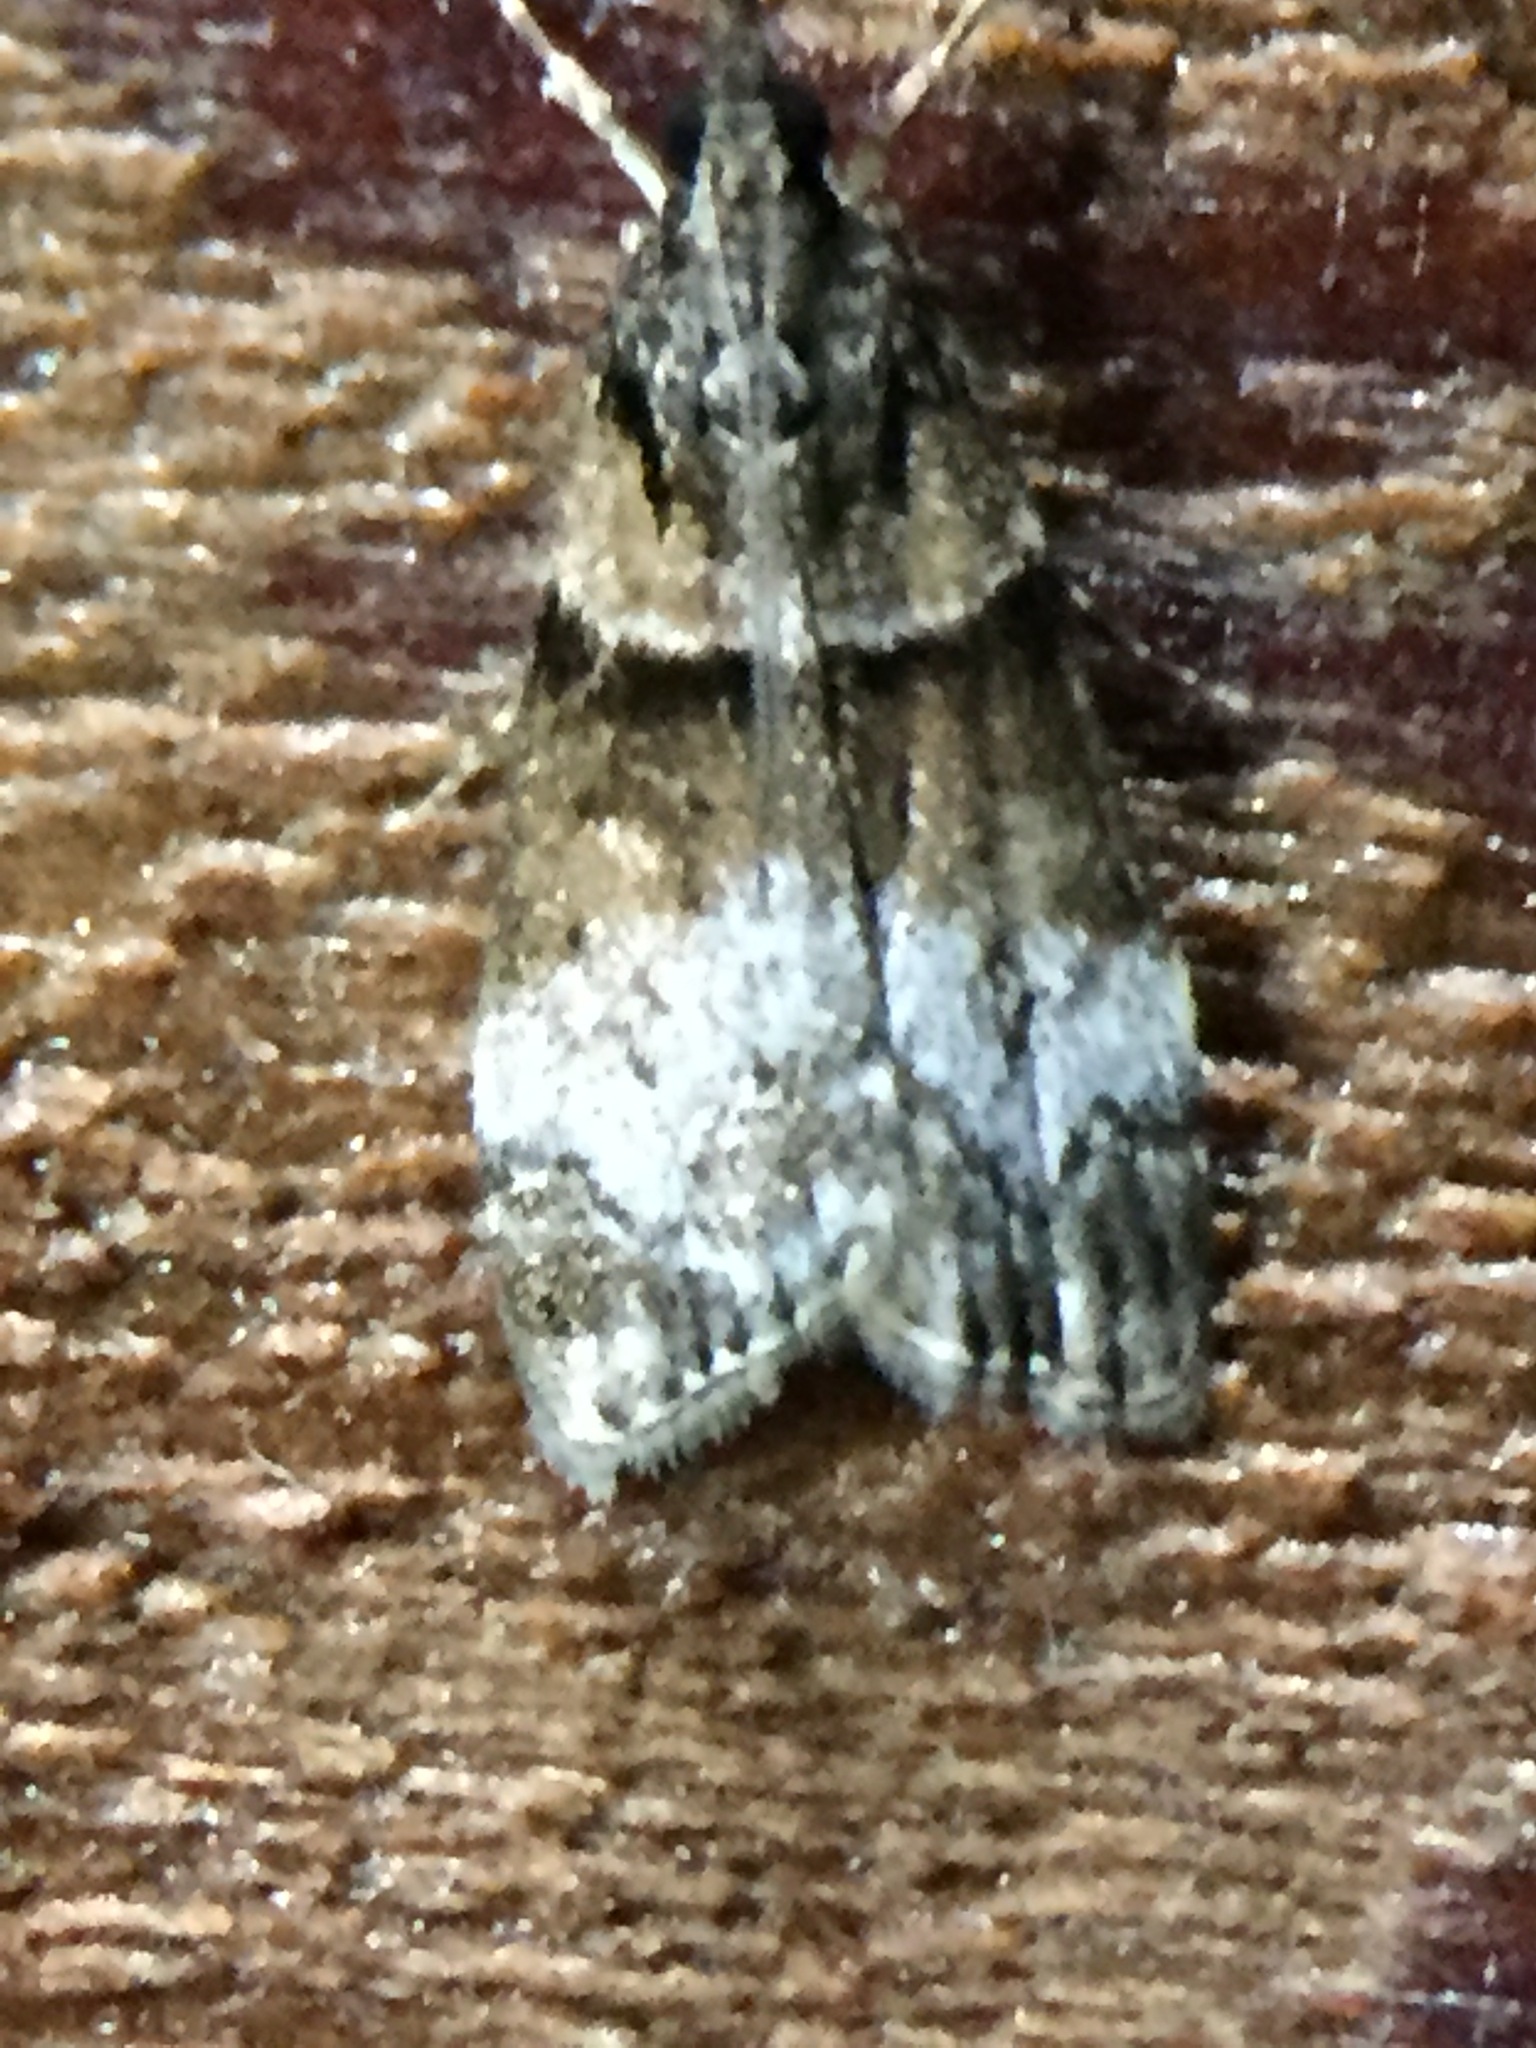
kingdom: Animalia
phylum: Arthropoda
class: Insecta
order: Lepidoptera
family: Crambidae
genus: Eudonia
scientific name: Eudonia colpota
